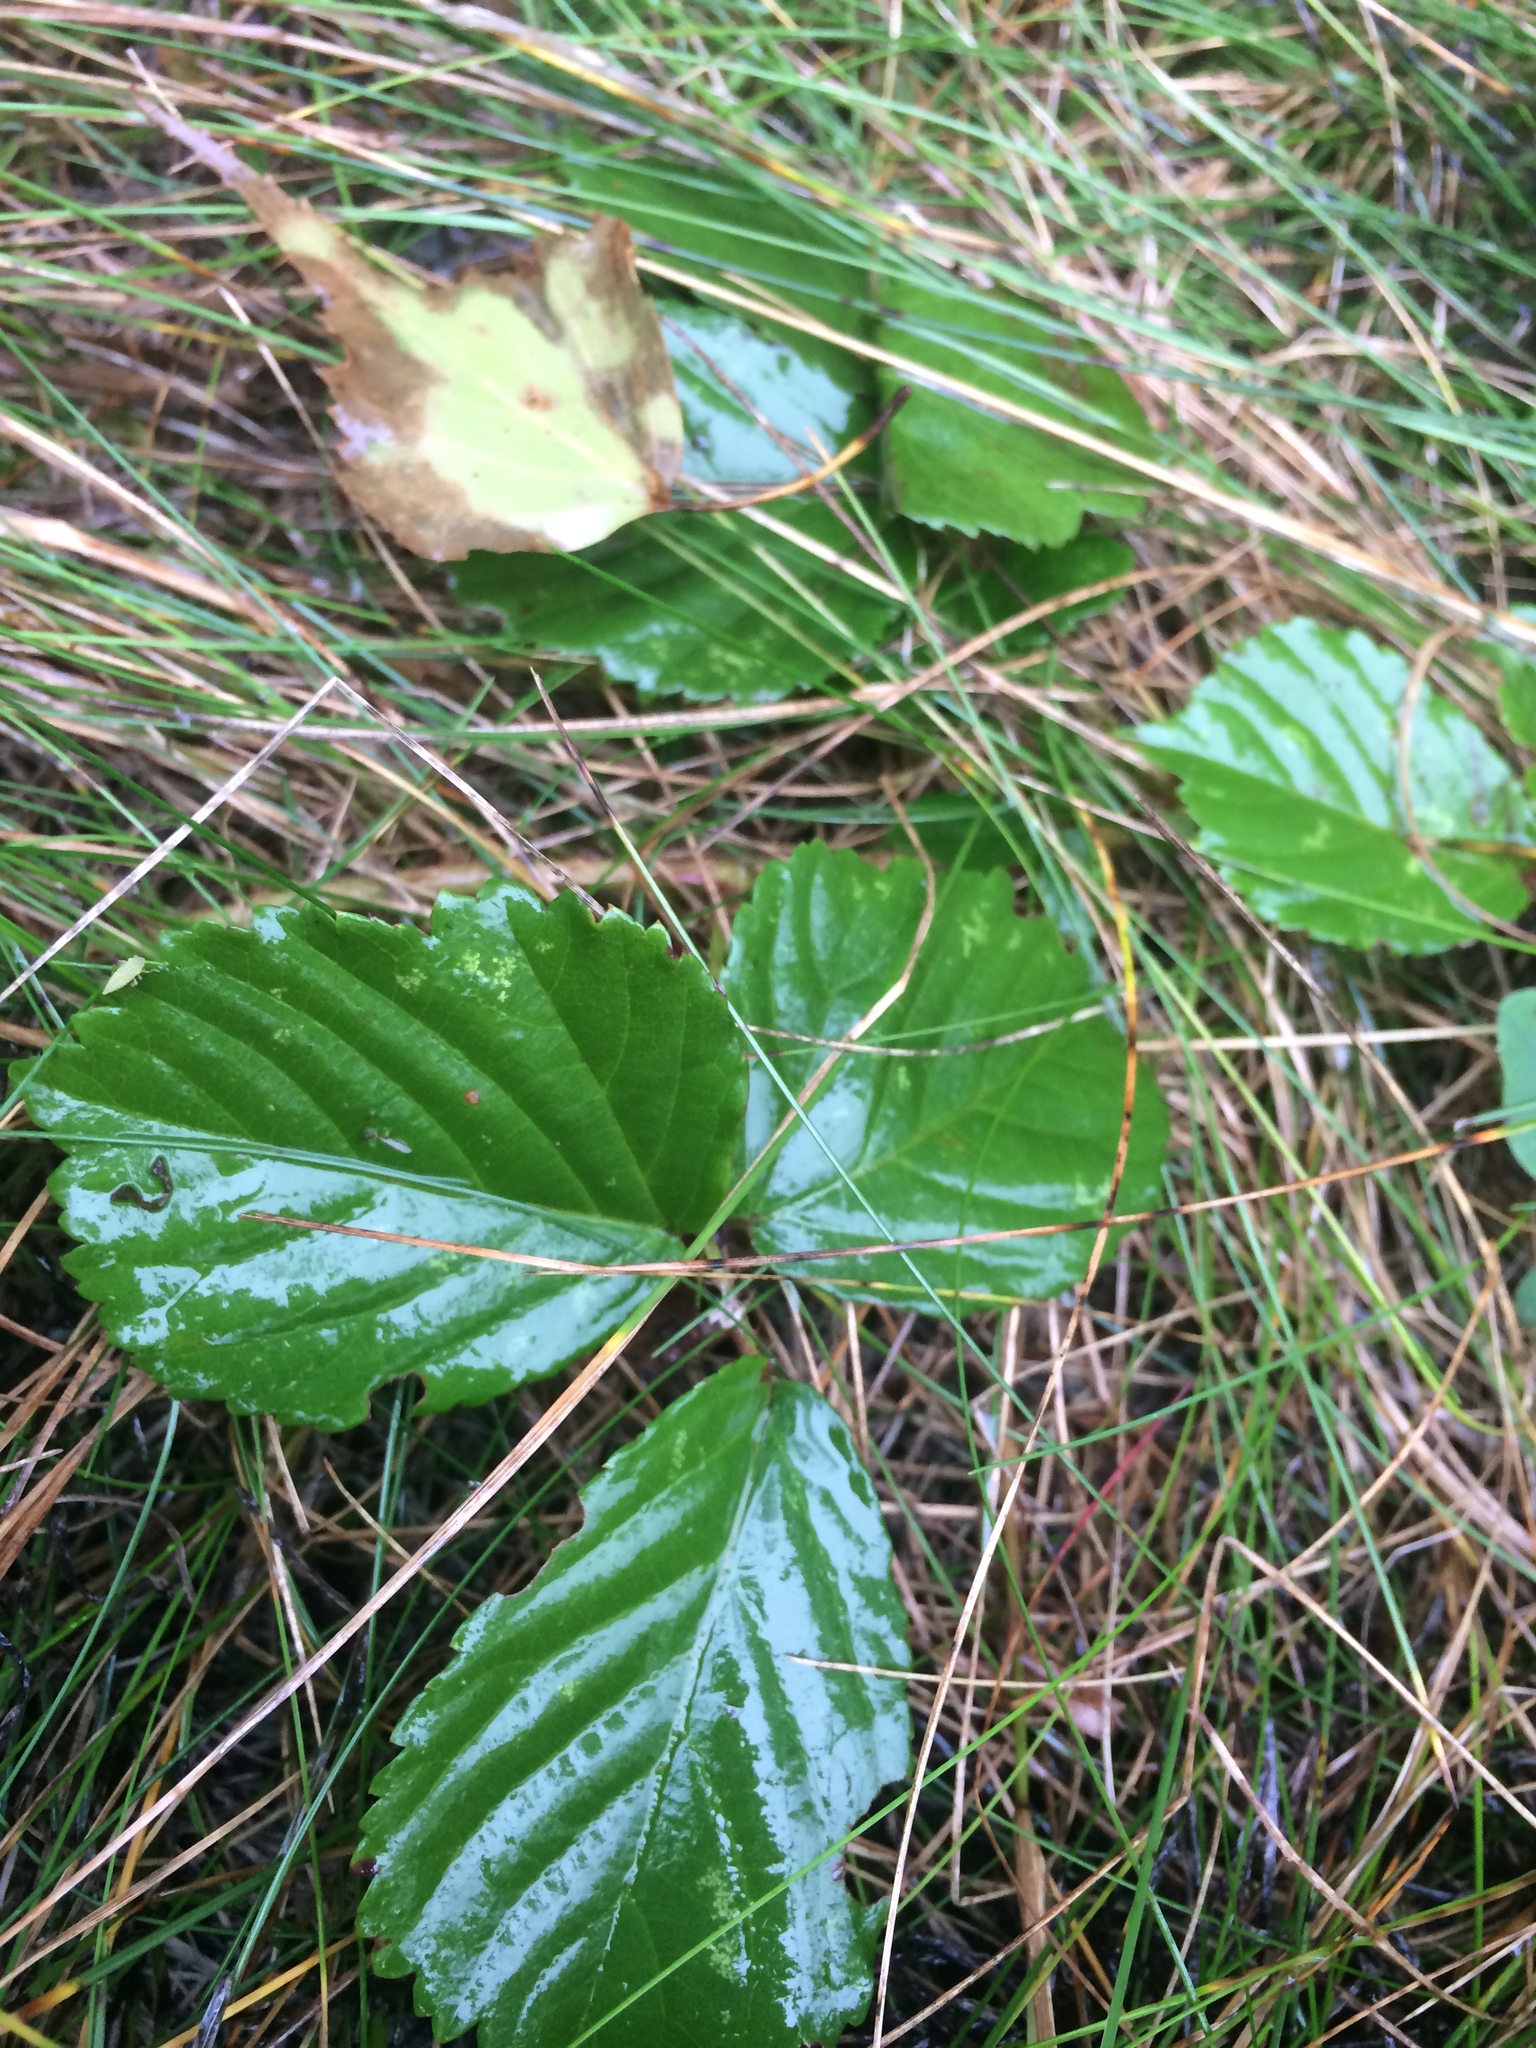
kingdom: Plantae
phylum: Tracheophyta
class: Magnoliopsida
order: Rosales
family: Rosaceae
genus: Rubus
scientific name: Rubus hispidus
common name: Running blackberry
